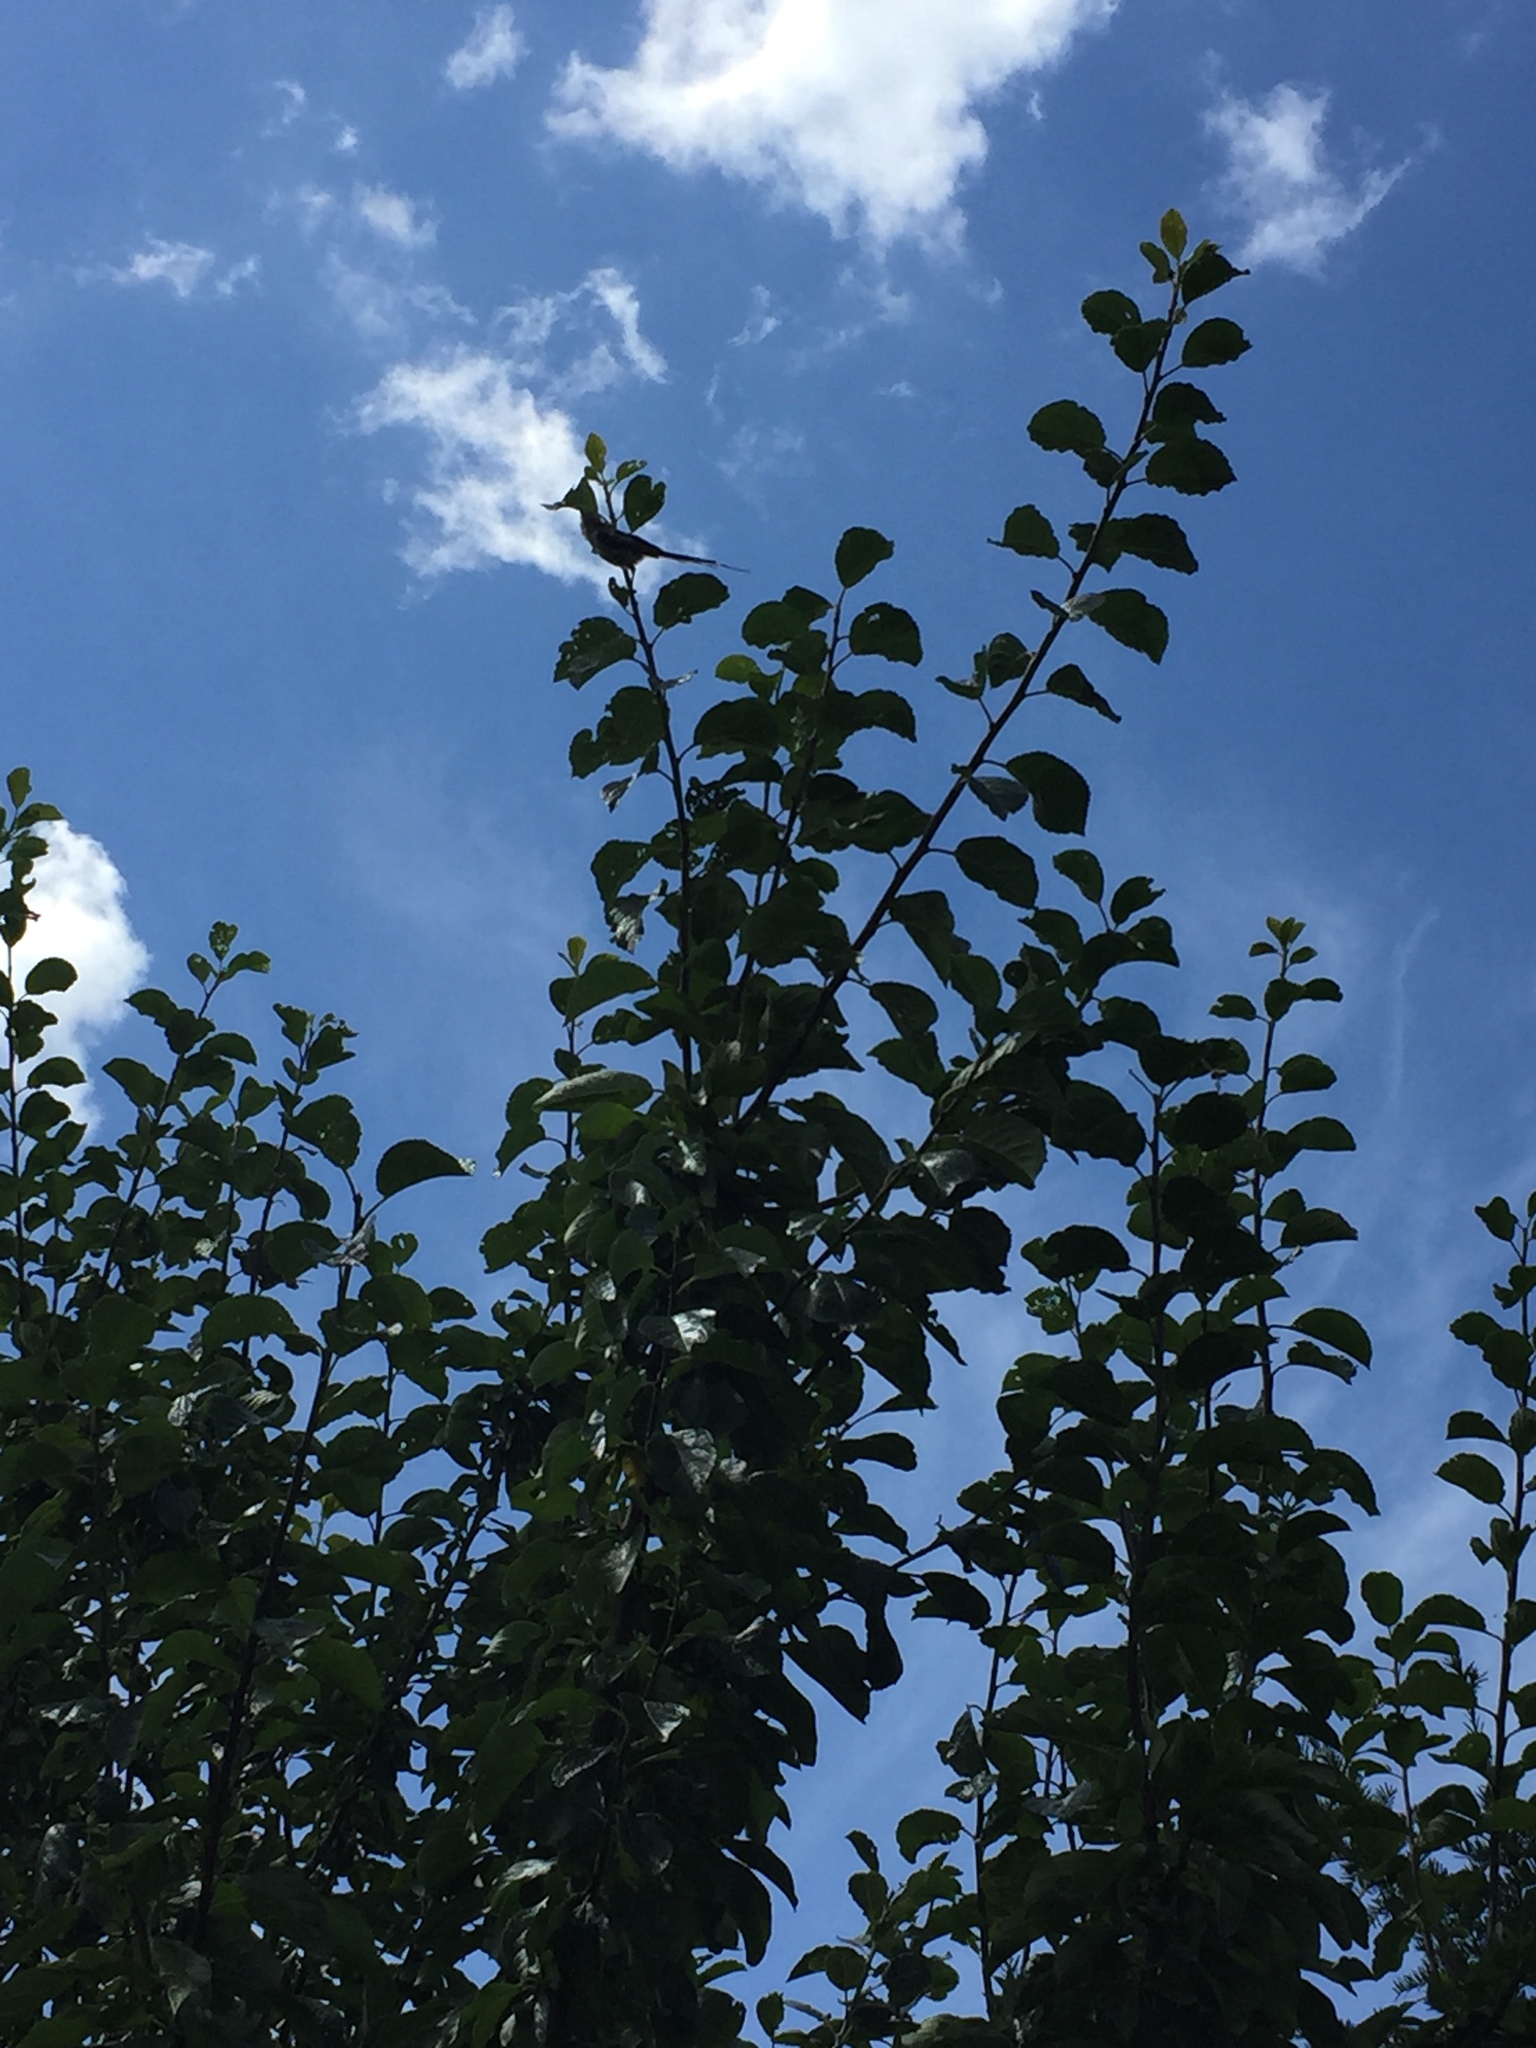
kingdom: Animalia
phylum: Chordata
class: Aves
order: Passeriformes
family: Aegithalidae
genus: Aegithalos
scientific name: Aegithalos caudatus
